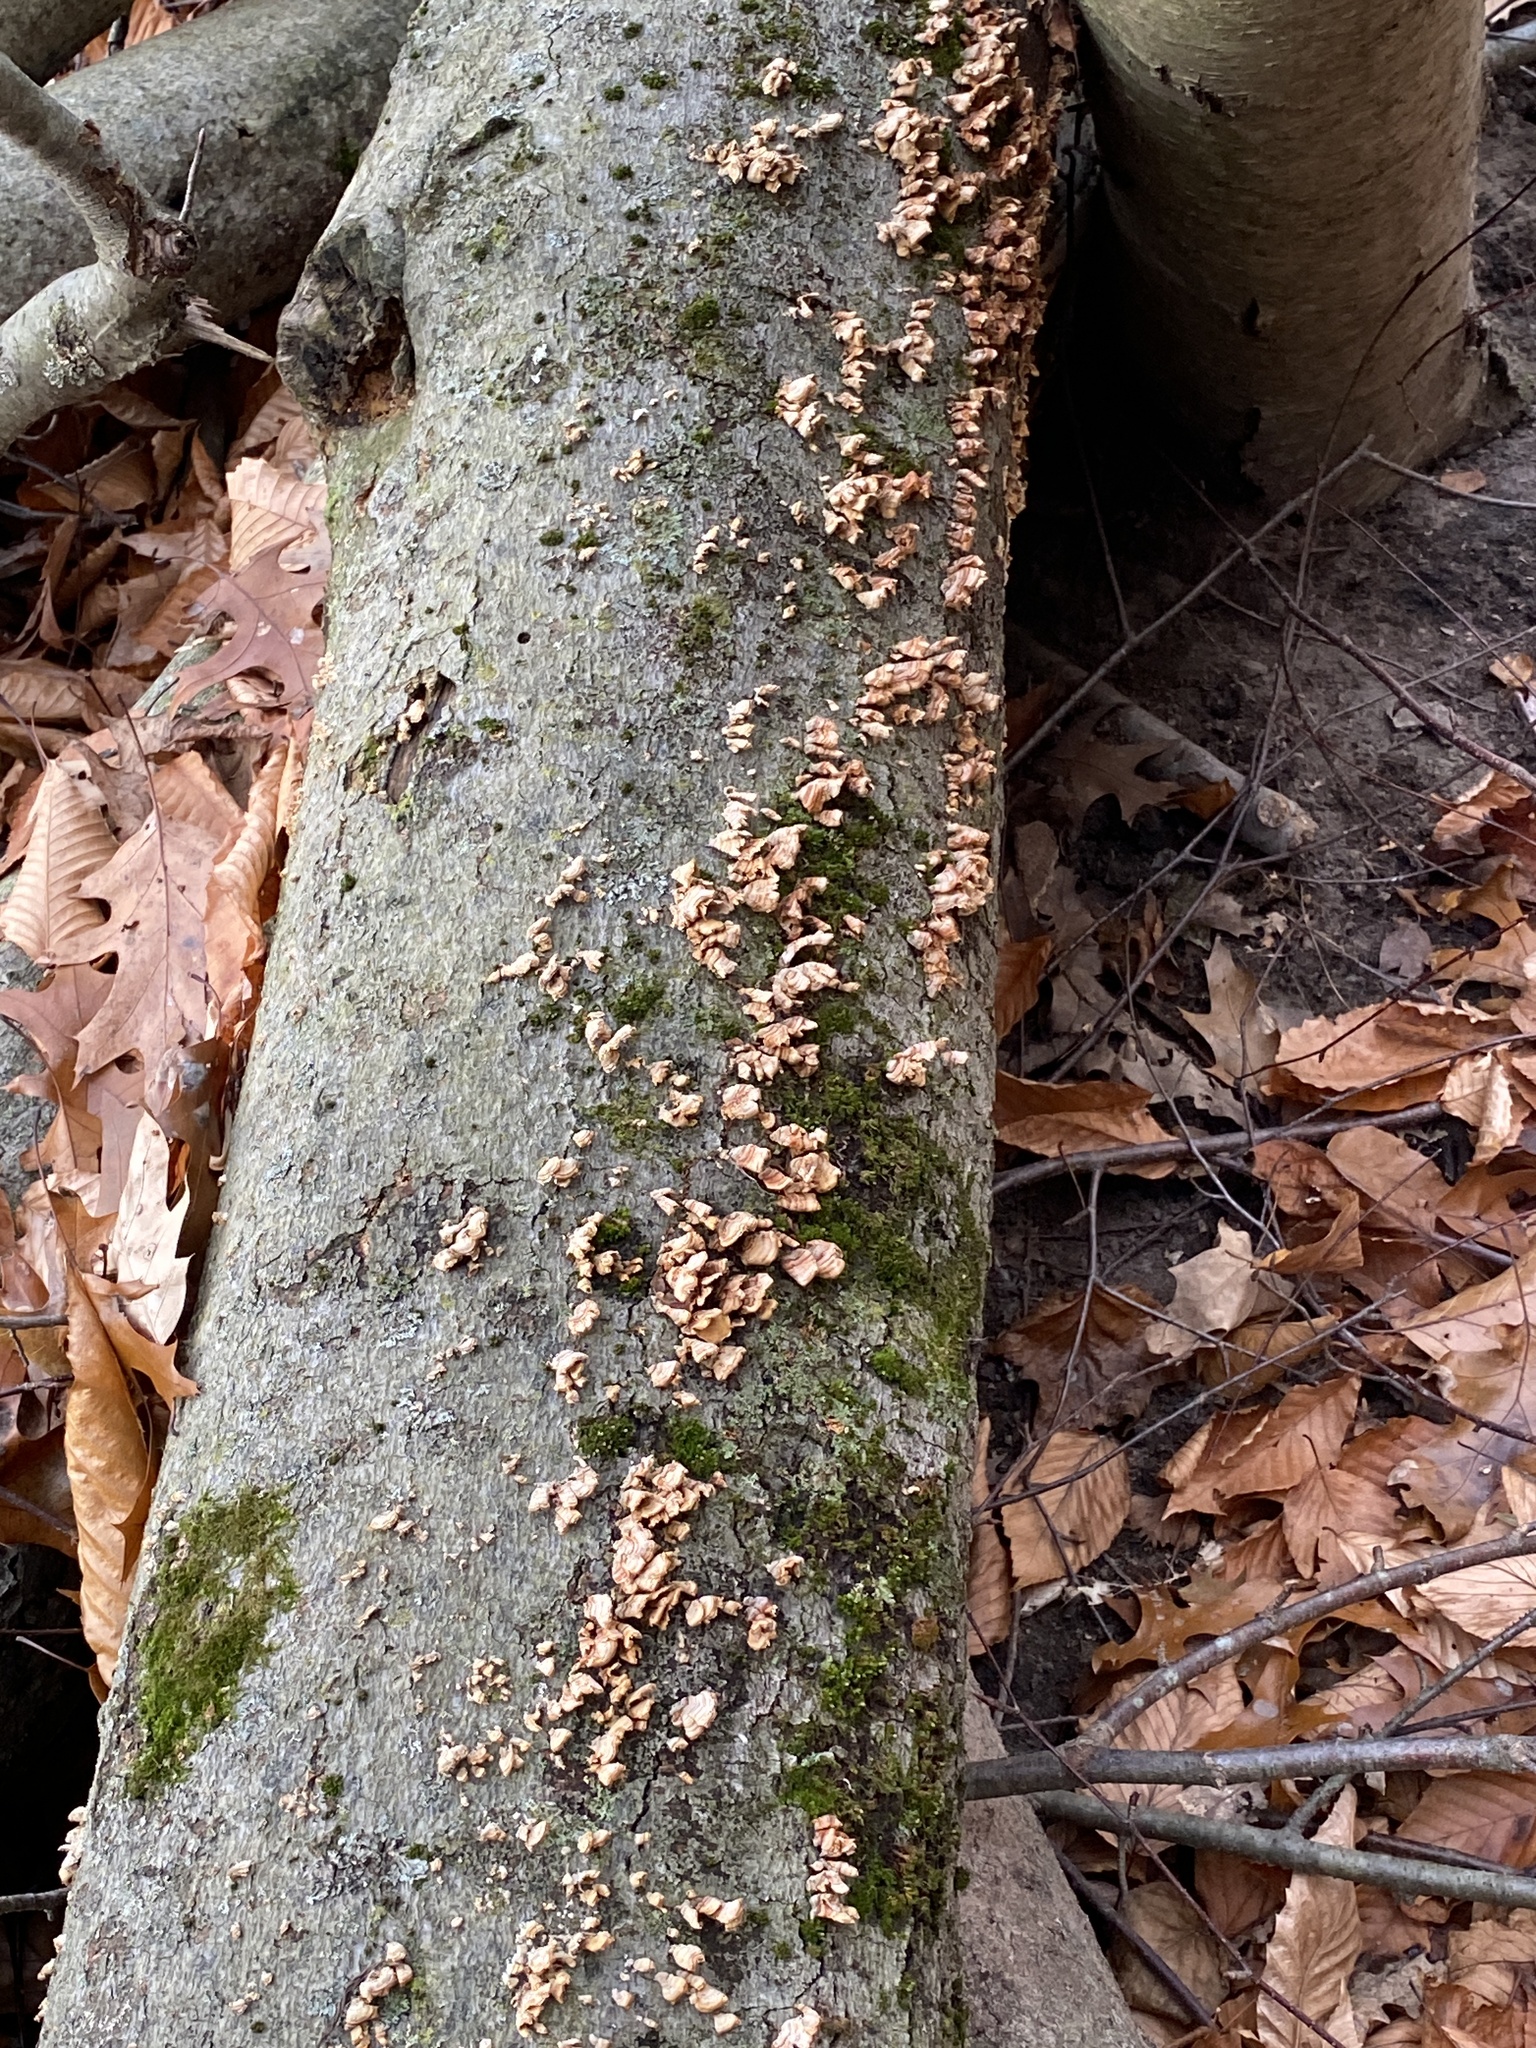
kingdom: Fungi
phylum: Basidiomycota
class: Agaricomycetes
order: Russulales
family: Stereaceae
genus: Stereum
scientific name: Stereum complicatum
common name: Crowded parchment
